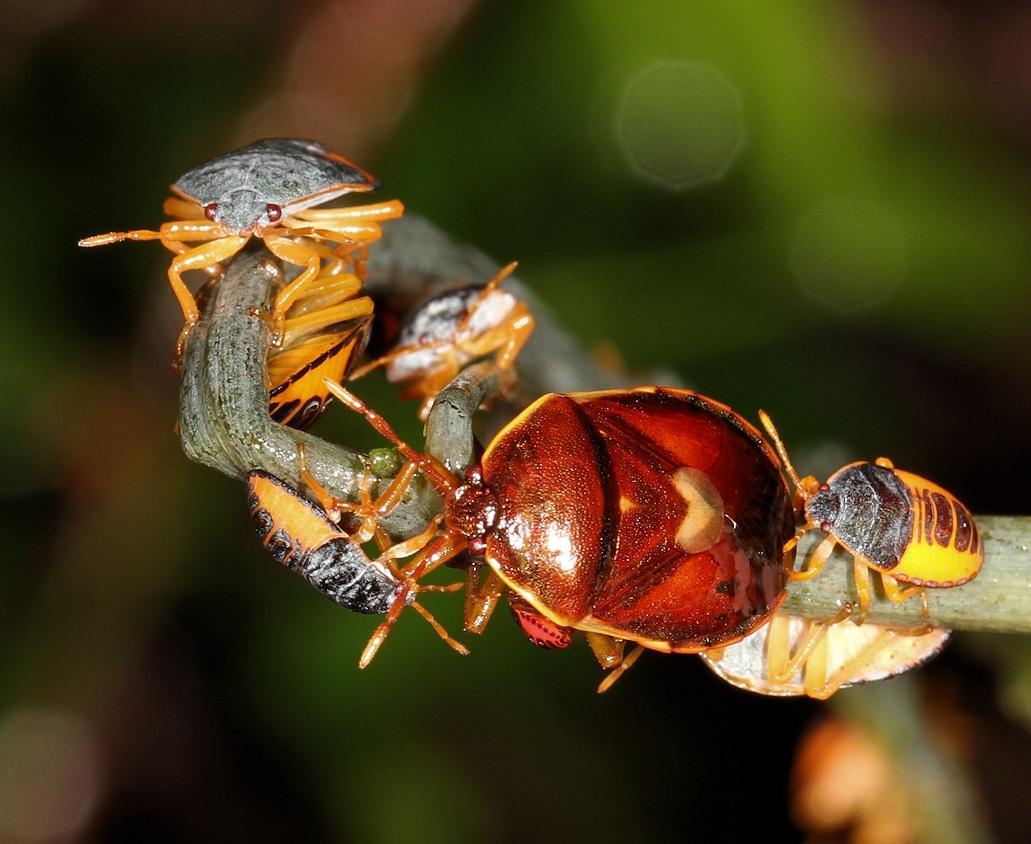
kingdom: Animalia
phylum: Arthropoda
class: Insecta
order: Hemiptera
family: Dinidoridae
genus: Colpoproctus
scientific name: Colpoproctus pullus
